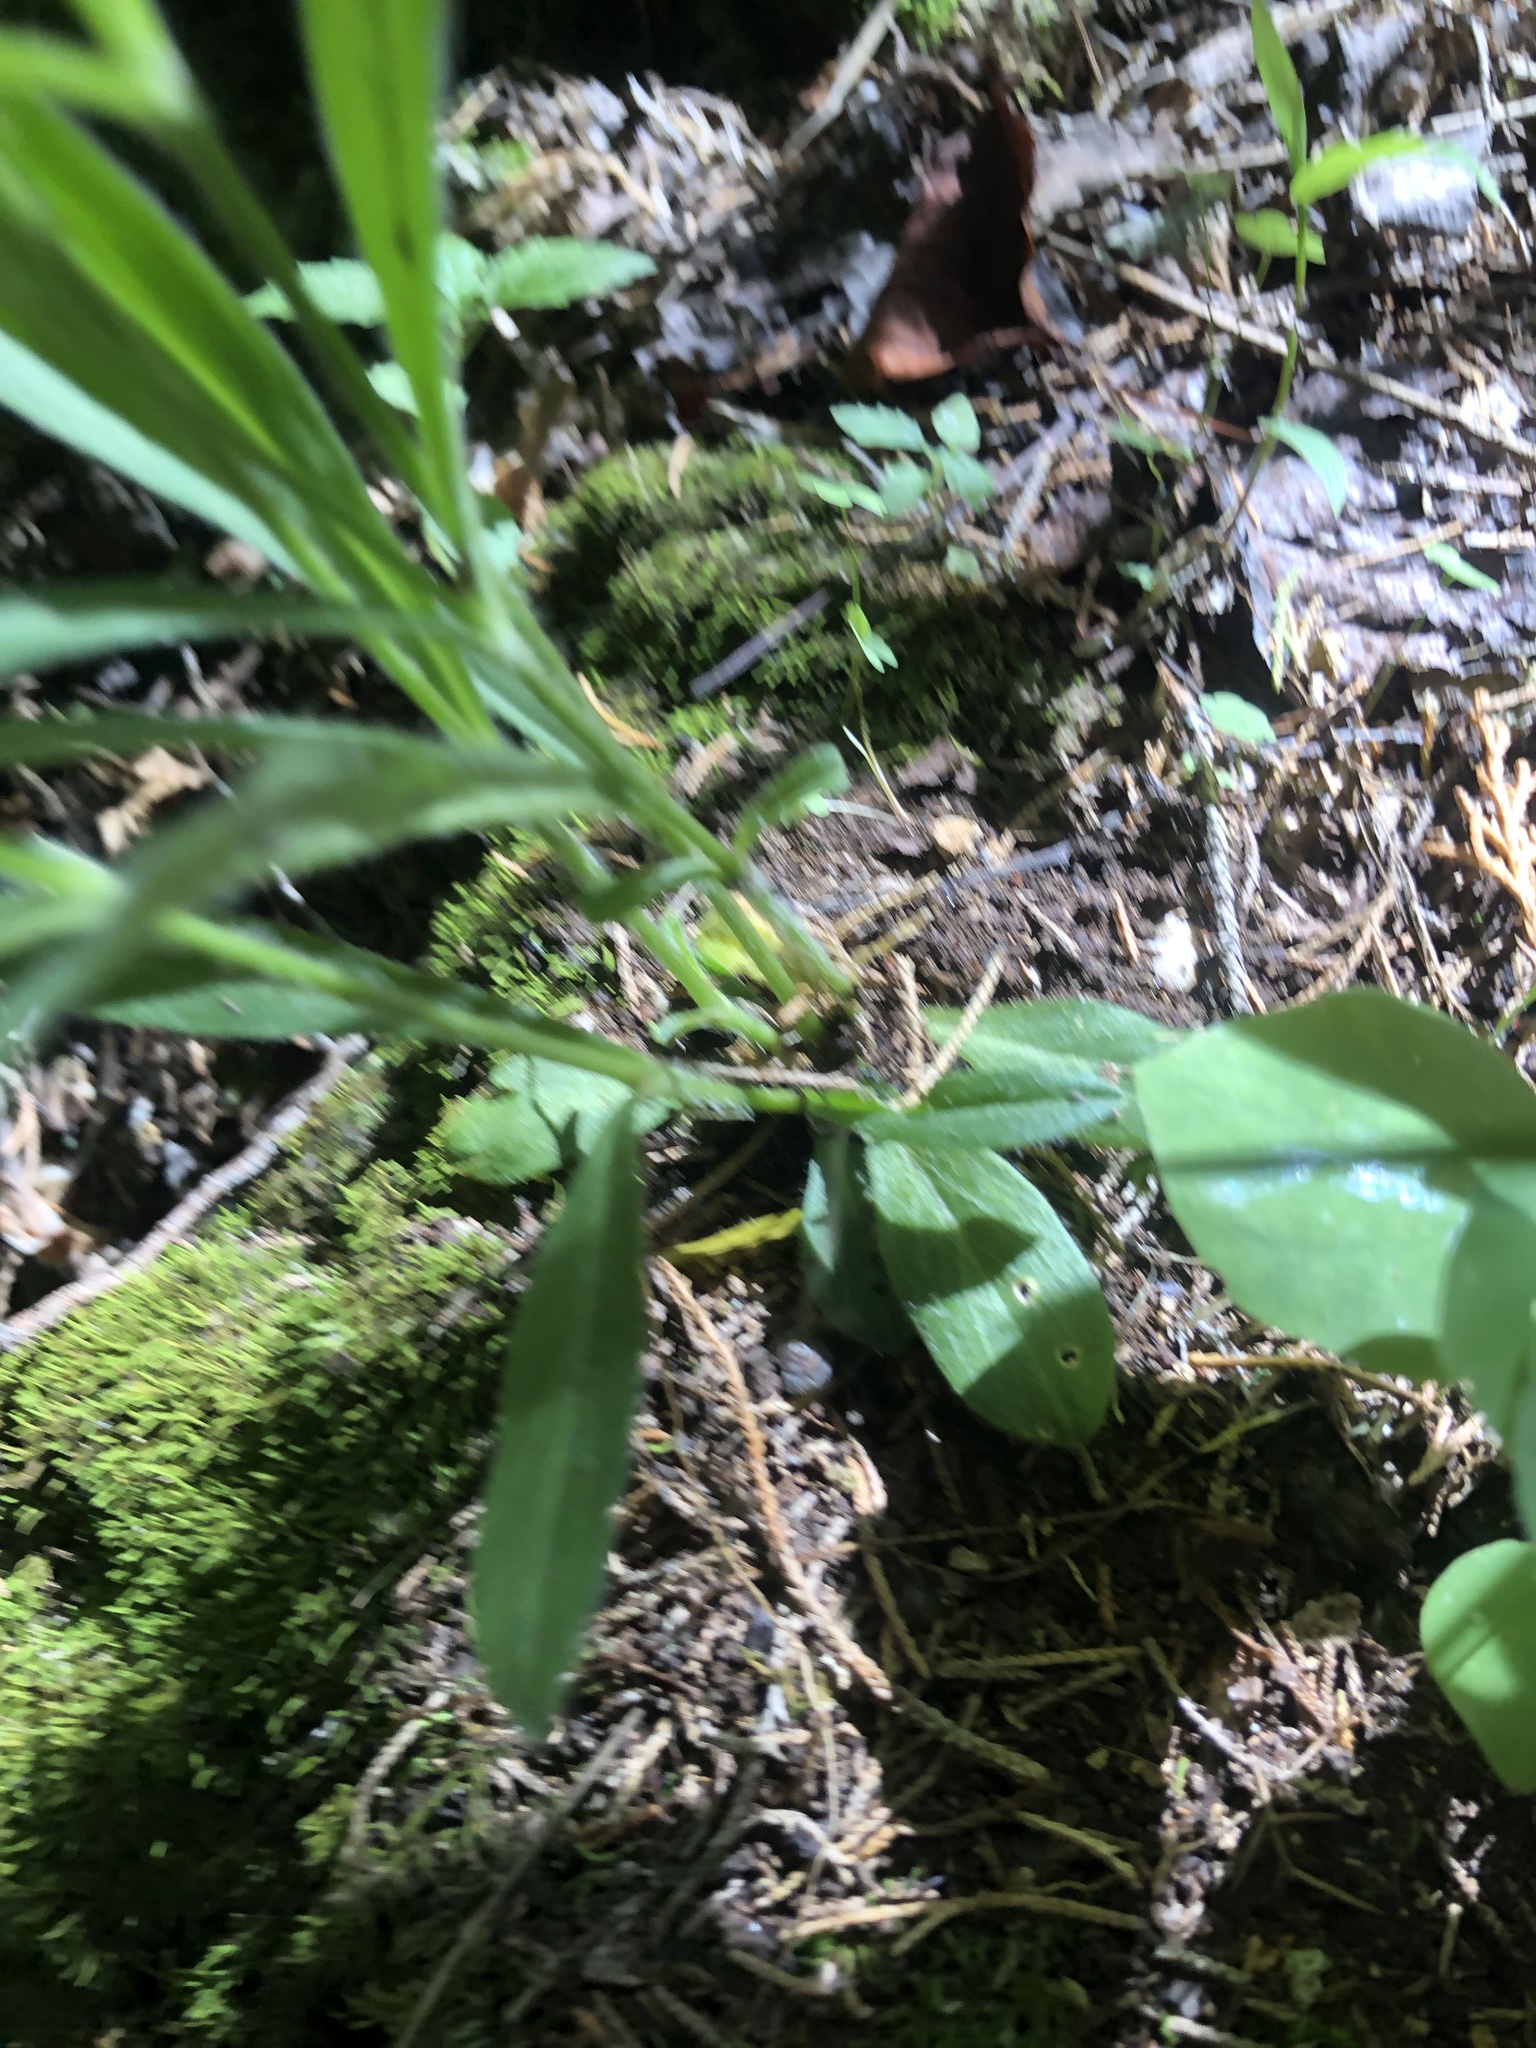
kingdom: Plantae
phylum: Tracheophyta
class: Magnoliopsida
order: Caryophyllales
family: Caryophyllaceae
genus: Silene
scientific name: Silene caroliniana
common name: Sticky catchfly
